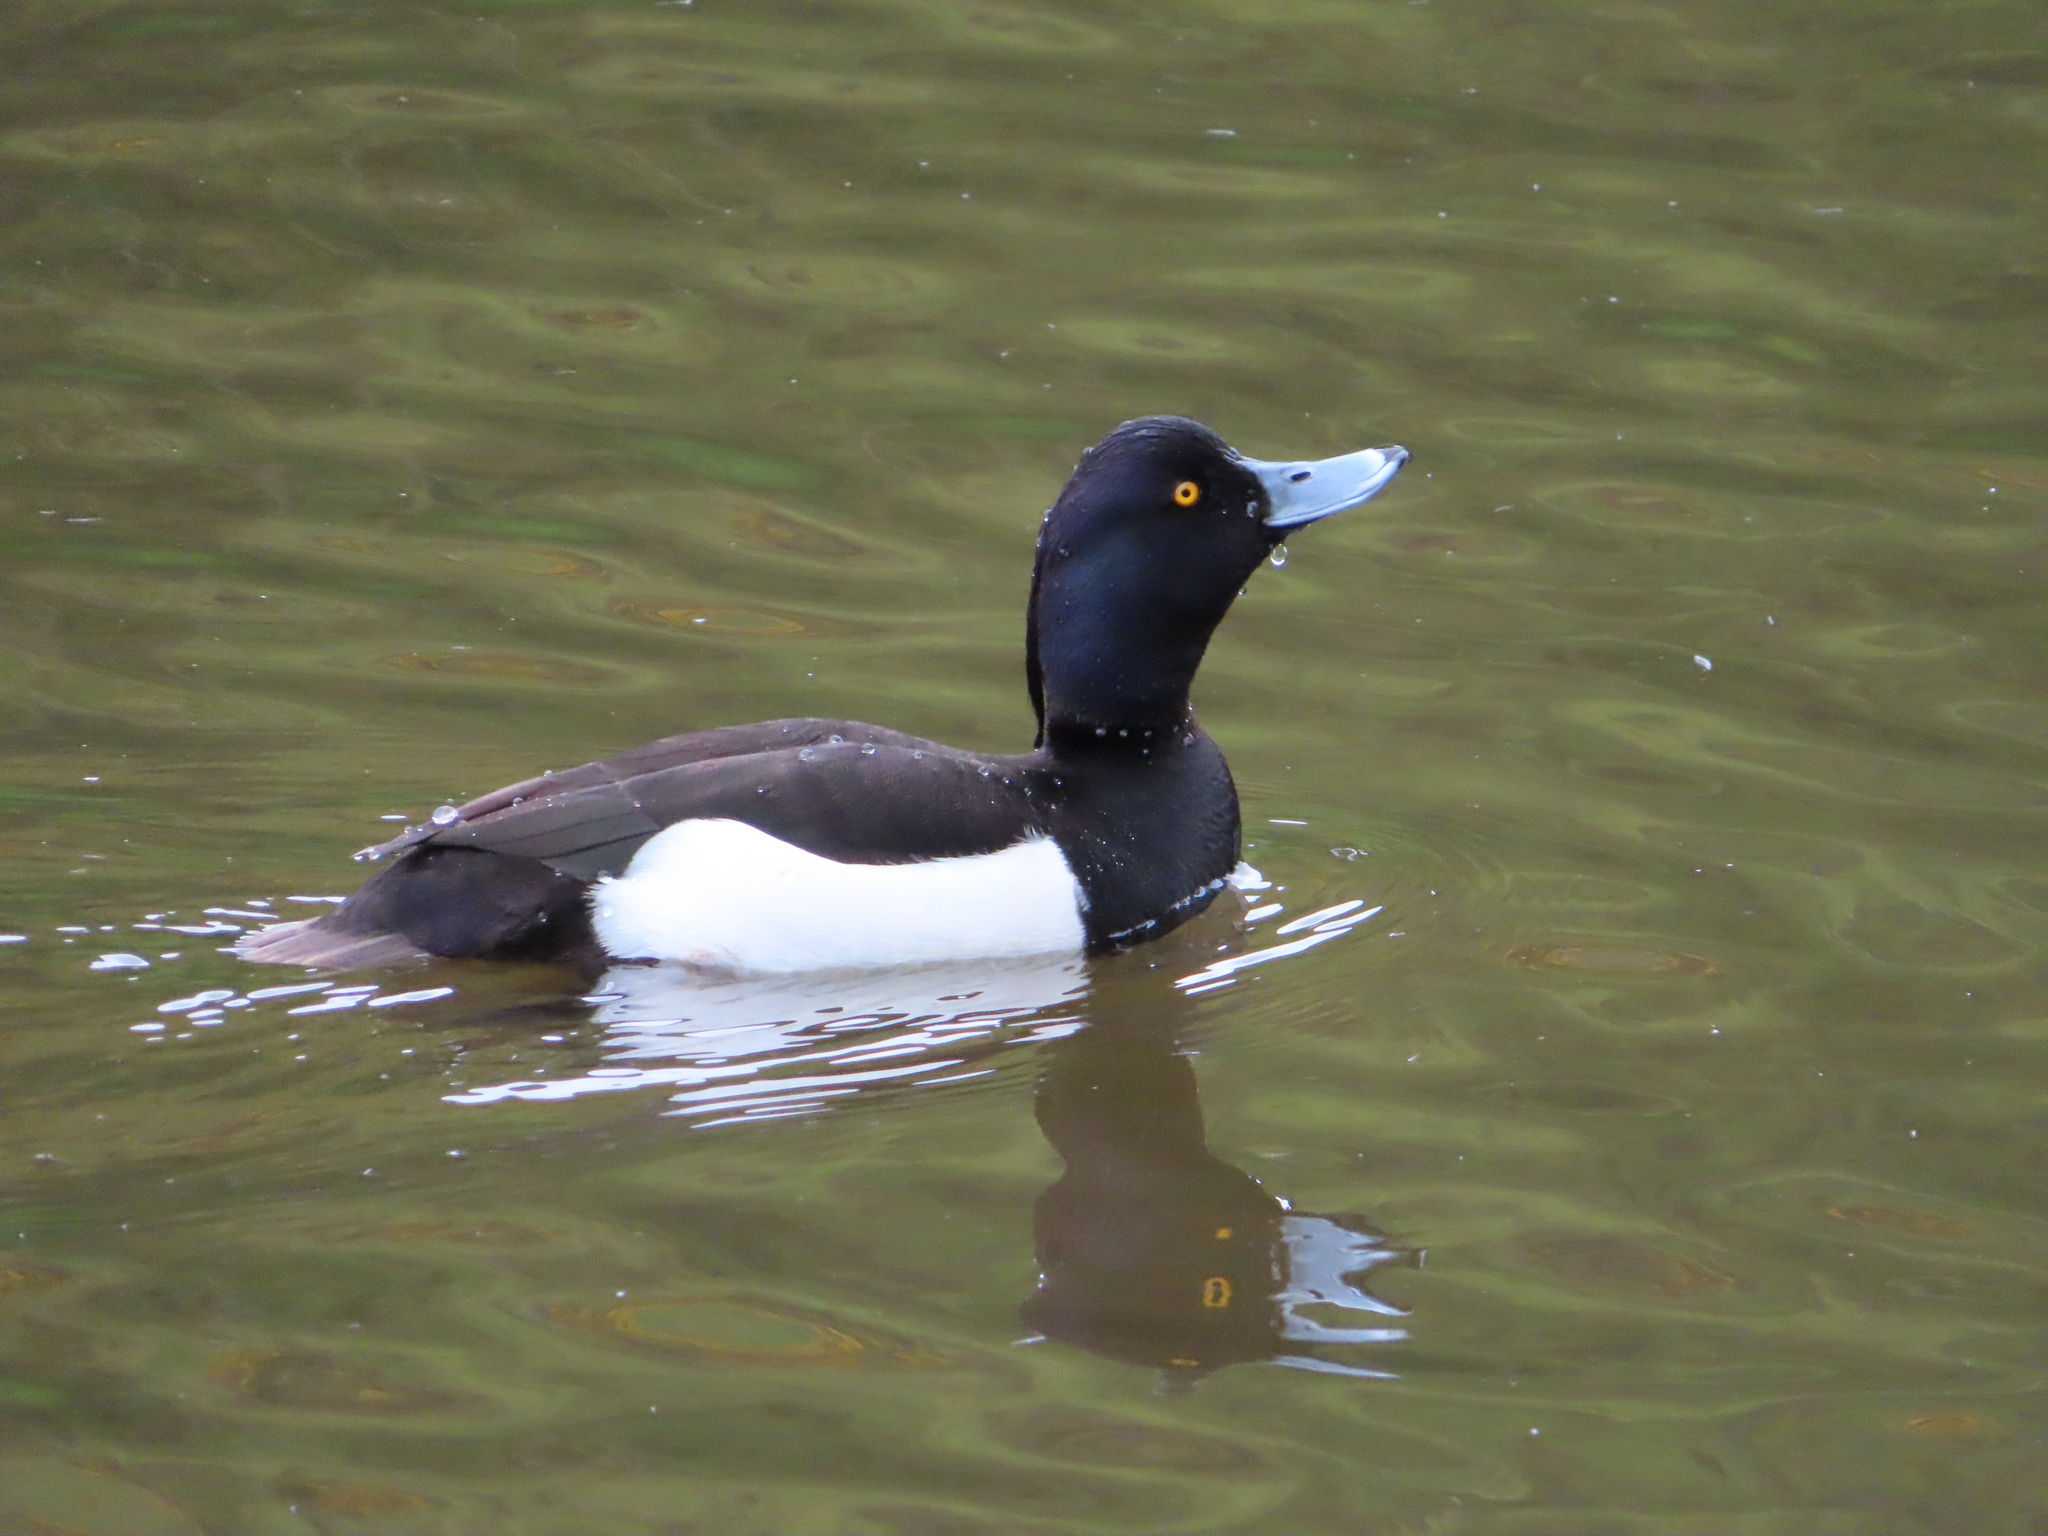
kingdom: Animalia
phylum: Chordata
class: Aves
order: Anseriformes
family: Anatidae
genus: Aythya
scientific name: Aythya fuligula
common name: Tufted duck
